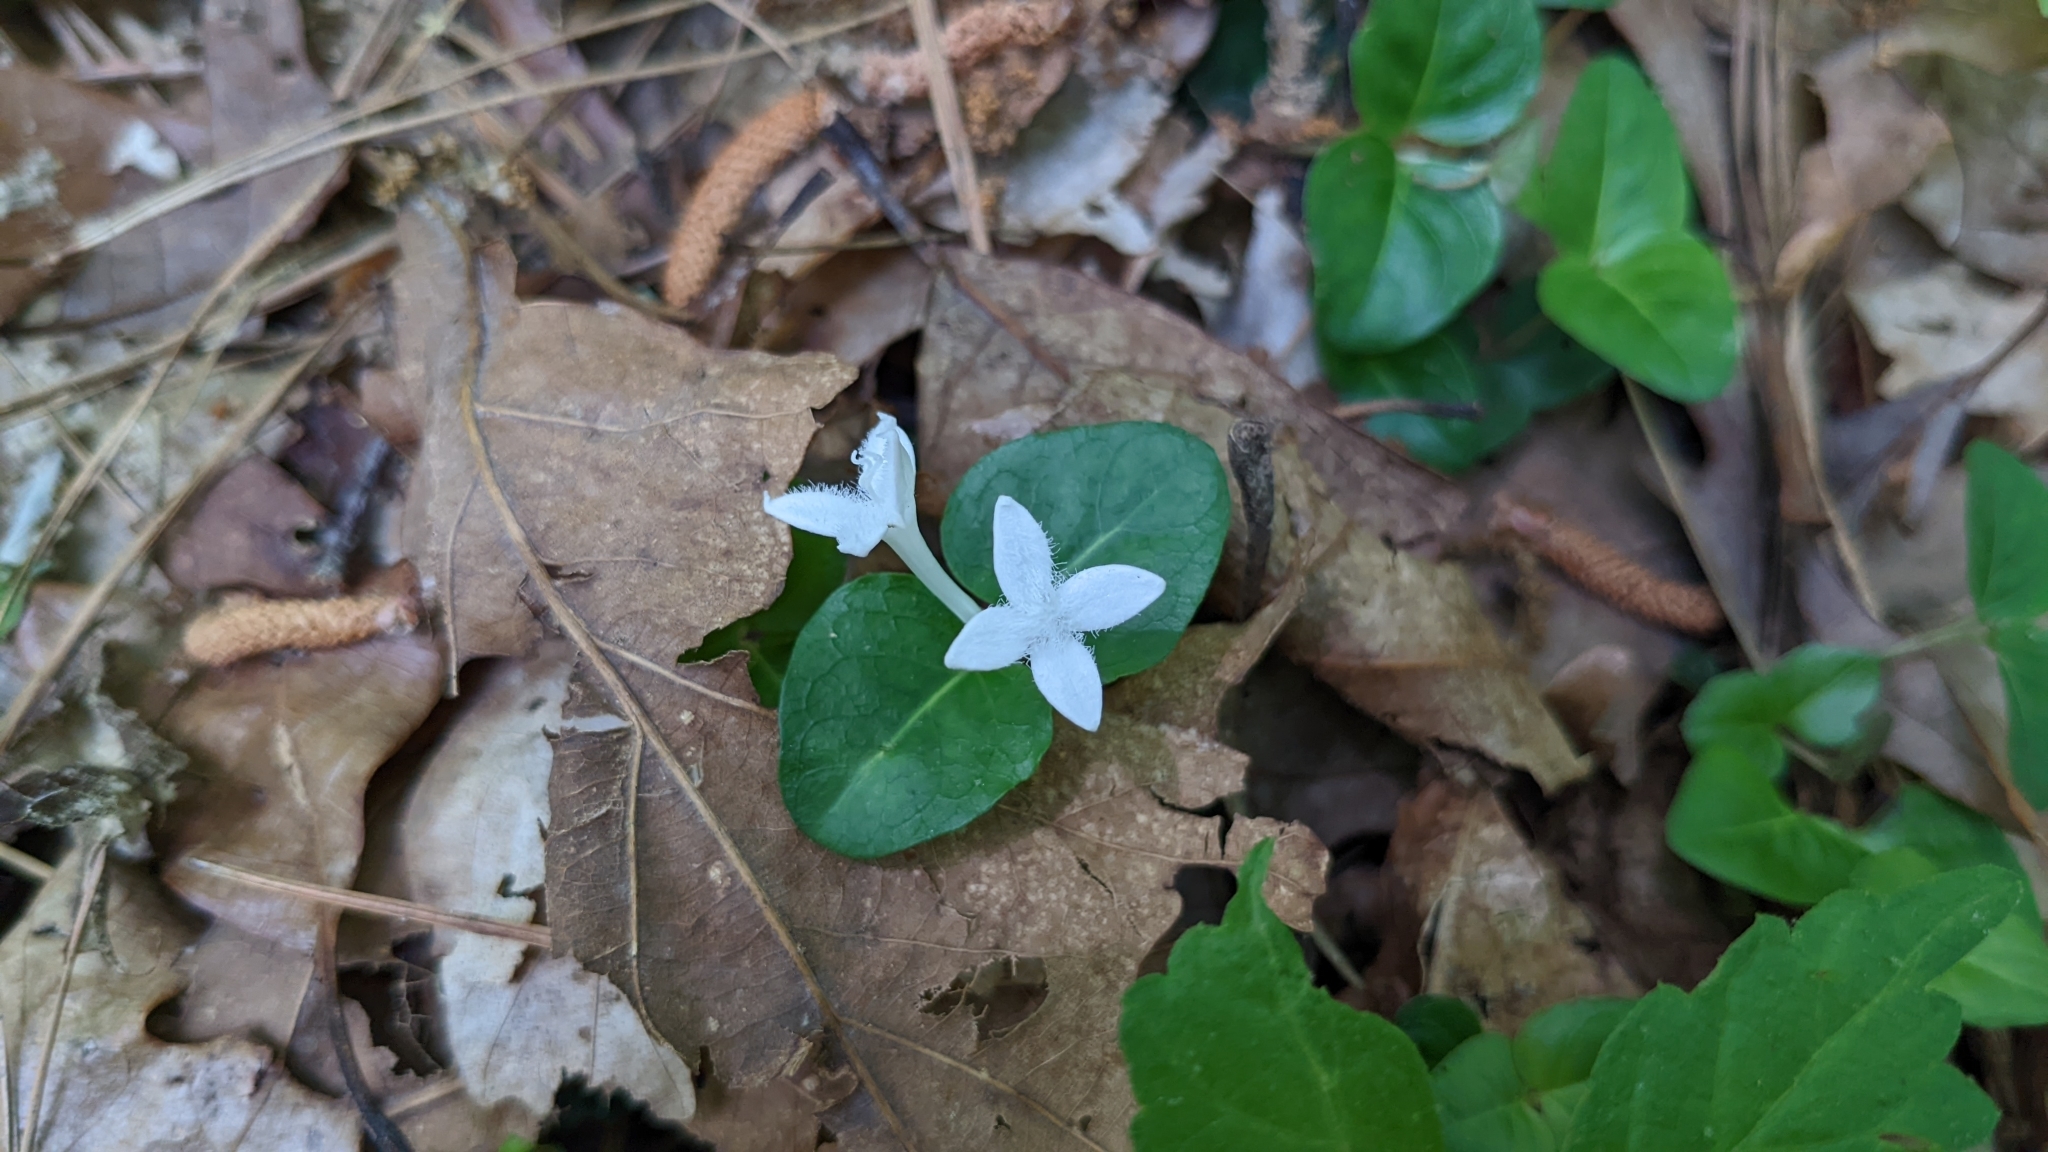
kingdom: Plantae
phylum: Tracheophyta
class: Magnoliopsida
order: Gentianales
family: Rubiaceae
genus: Mitchella
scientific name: Mitchella repens
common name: Partridge-berry
